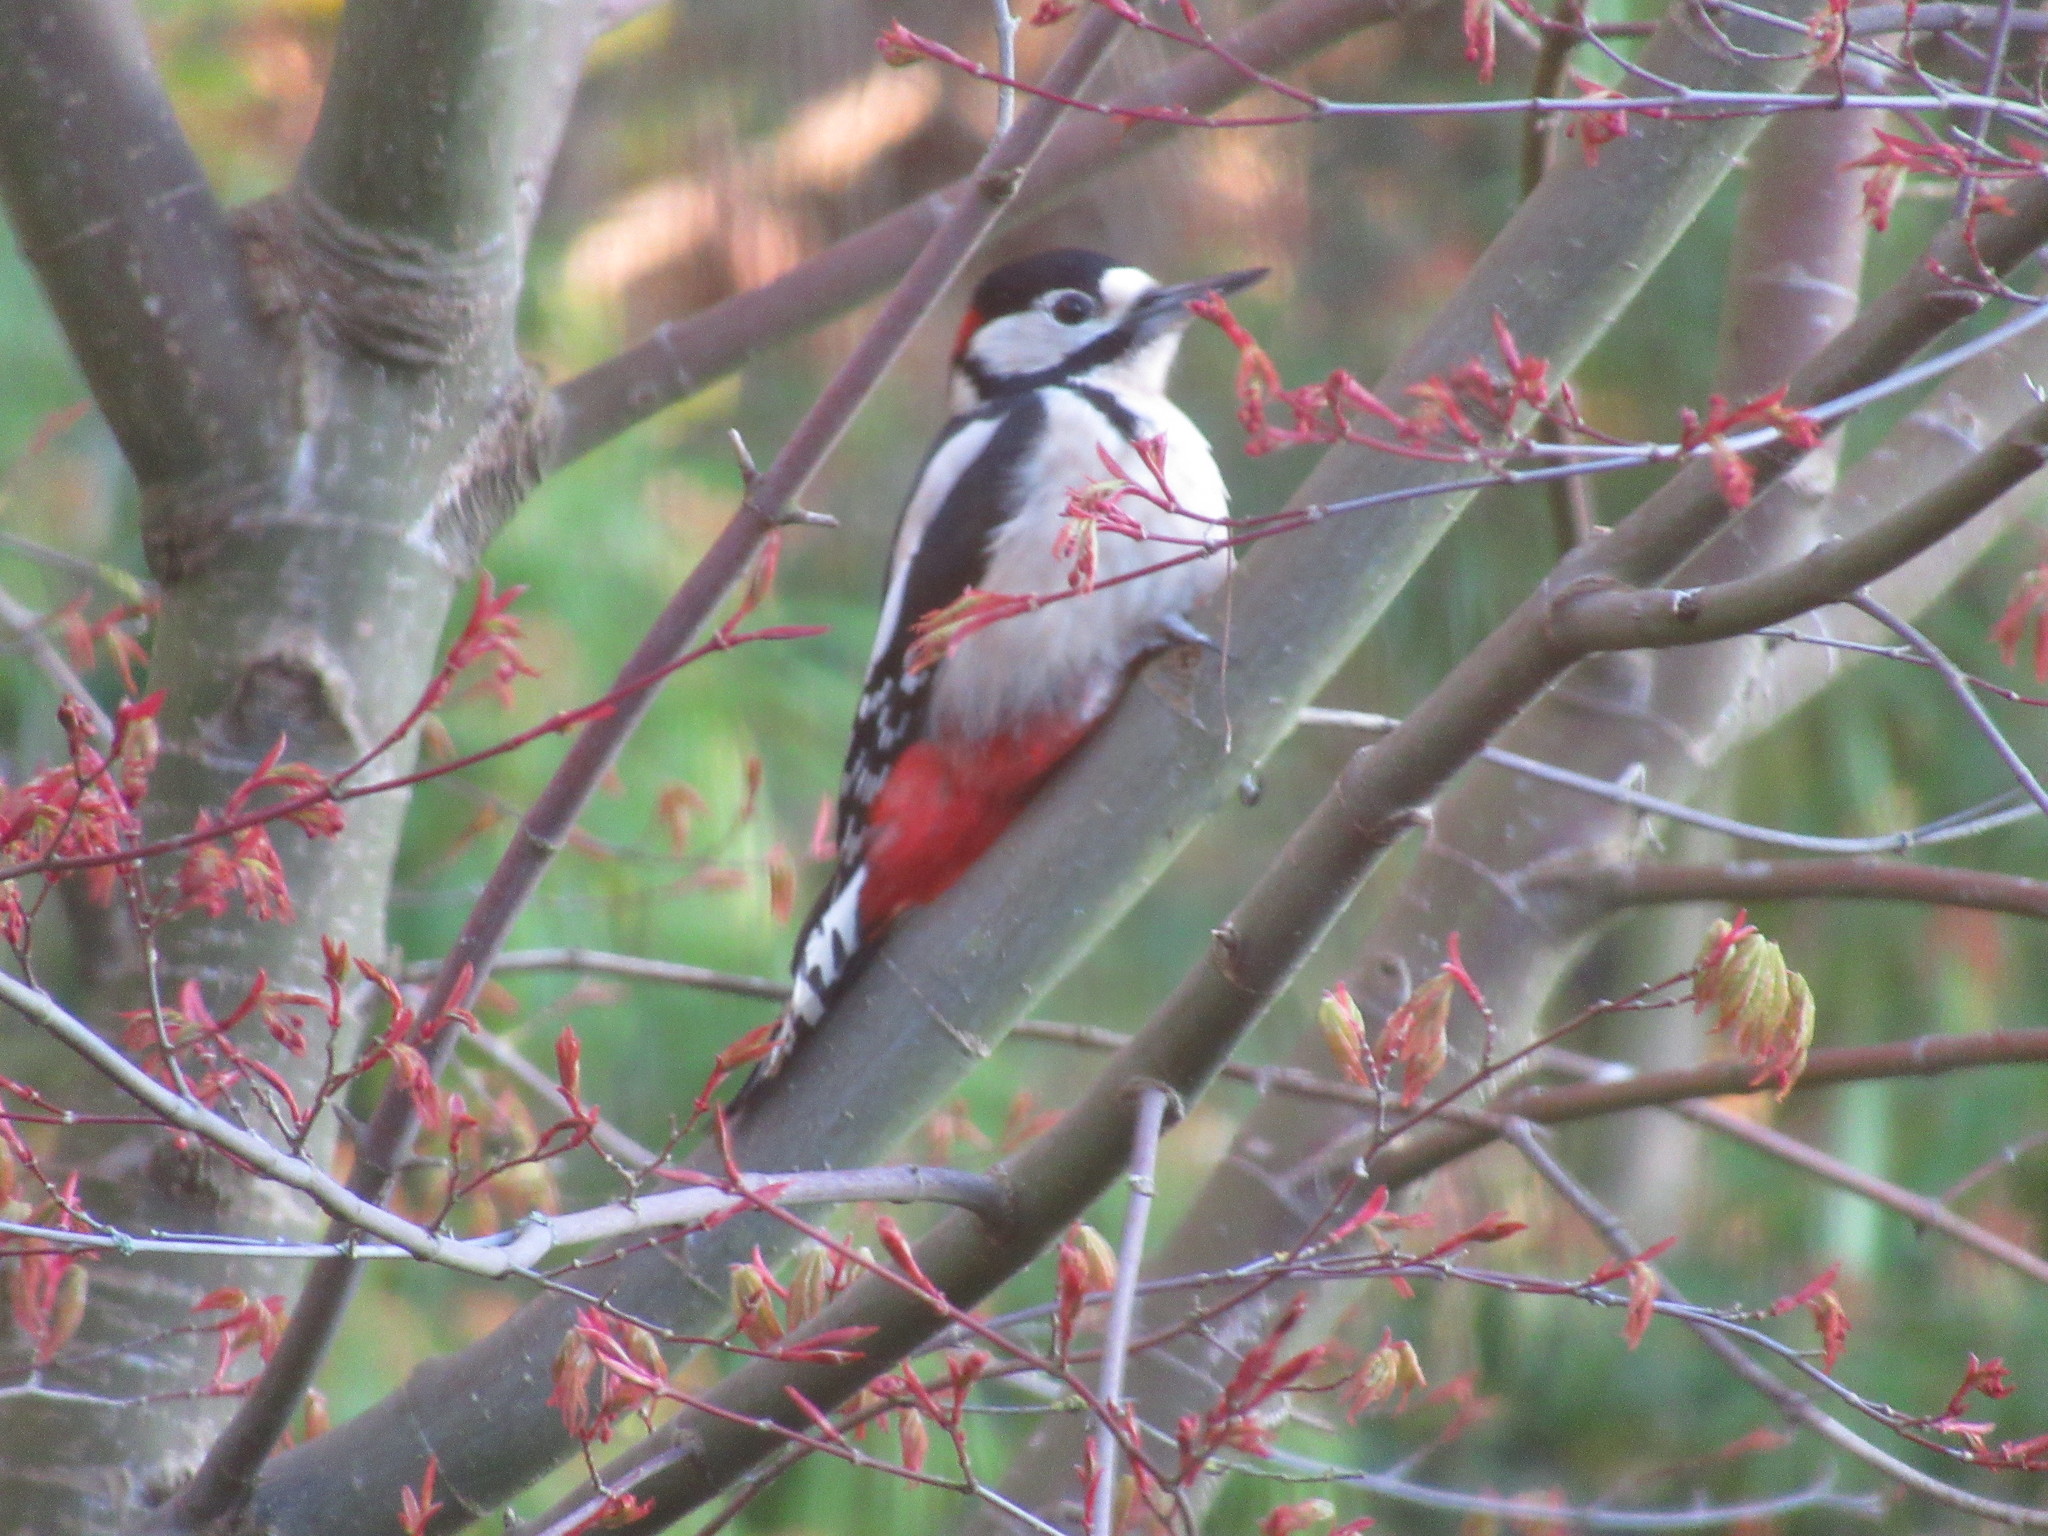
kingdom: Animalia
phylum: Chordata
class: Aves
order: Piciformes
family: Picidae
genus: Dendrocopos
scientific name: Dendrocopos major
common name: Great spotted woodpecker
